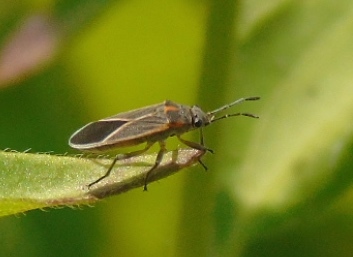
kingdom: Animalia
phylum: Arthropoda
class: Insecta
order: Hemiptera
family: Lygaeidae
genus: Parochrimnus
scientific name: Parochrimnus
